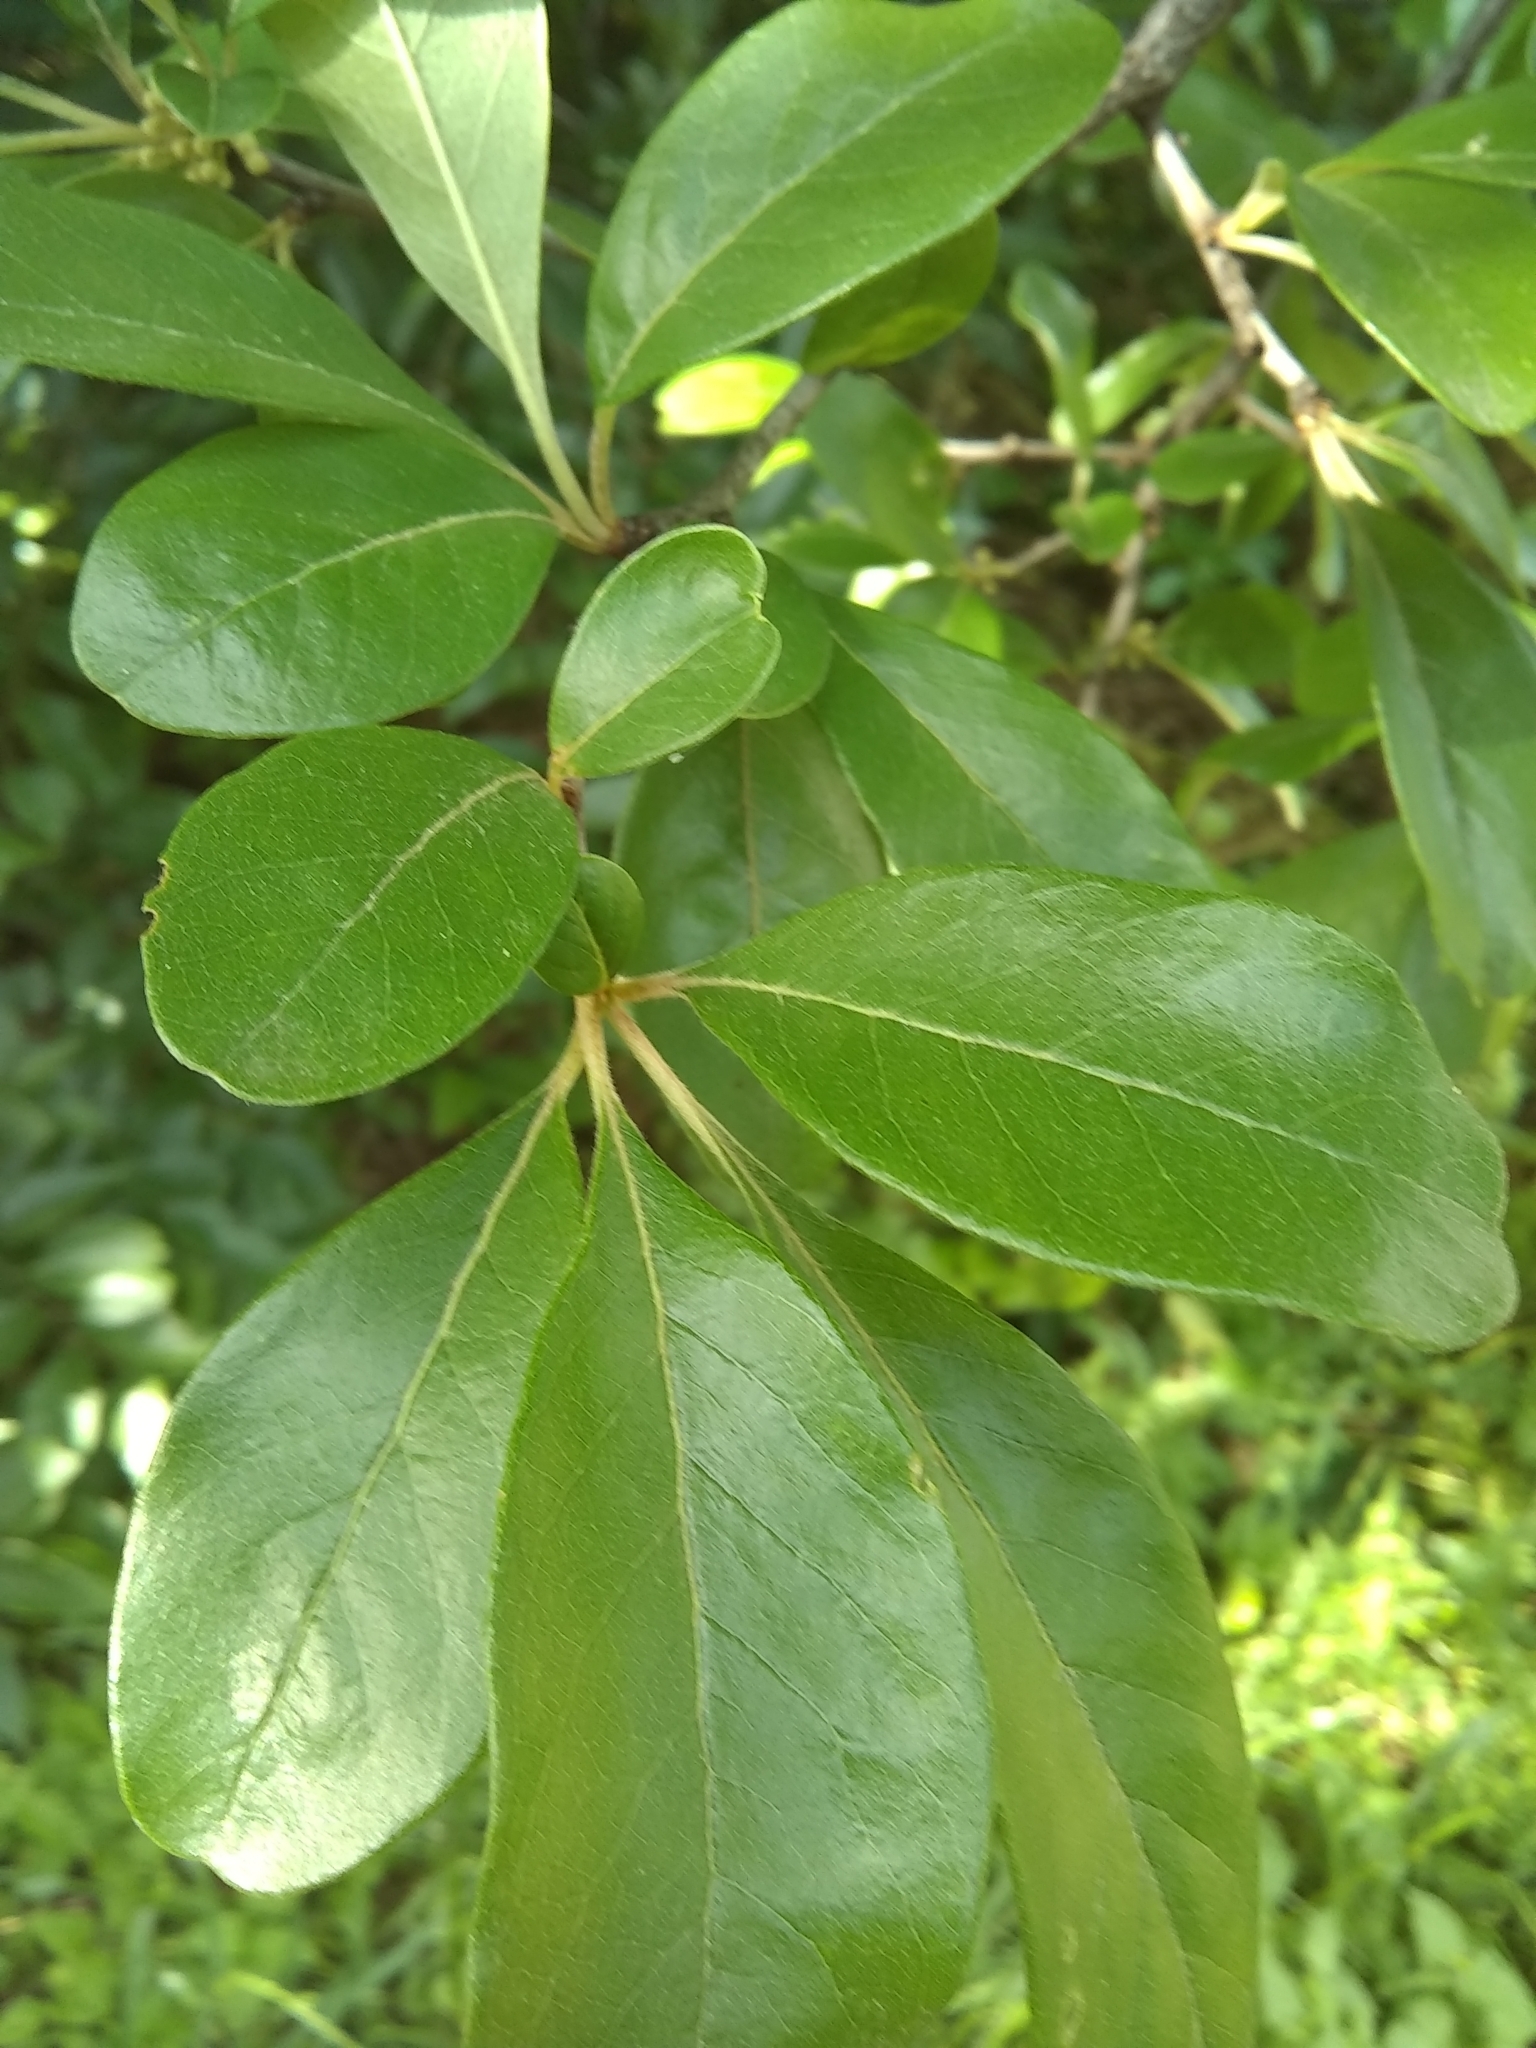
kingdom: Plantae
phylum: Tracheophyta
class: Magnoliopsida
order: Ericales
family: Sapotaceae
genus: Sideroxylon
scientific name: Sideroxylon lanuginosum
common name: Chittamwood
